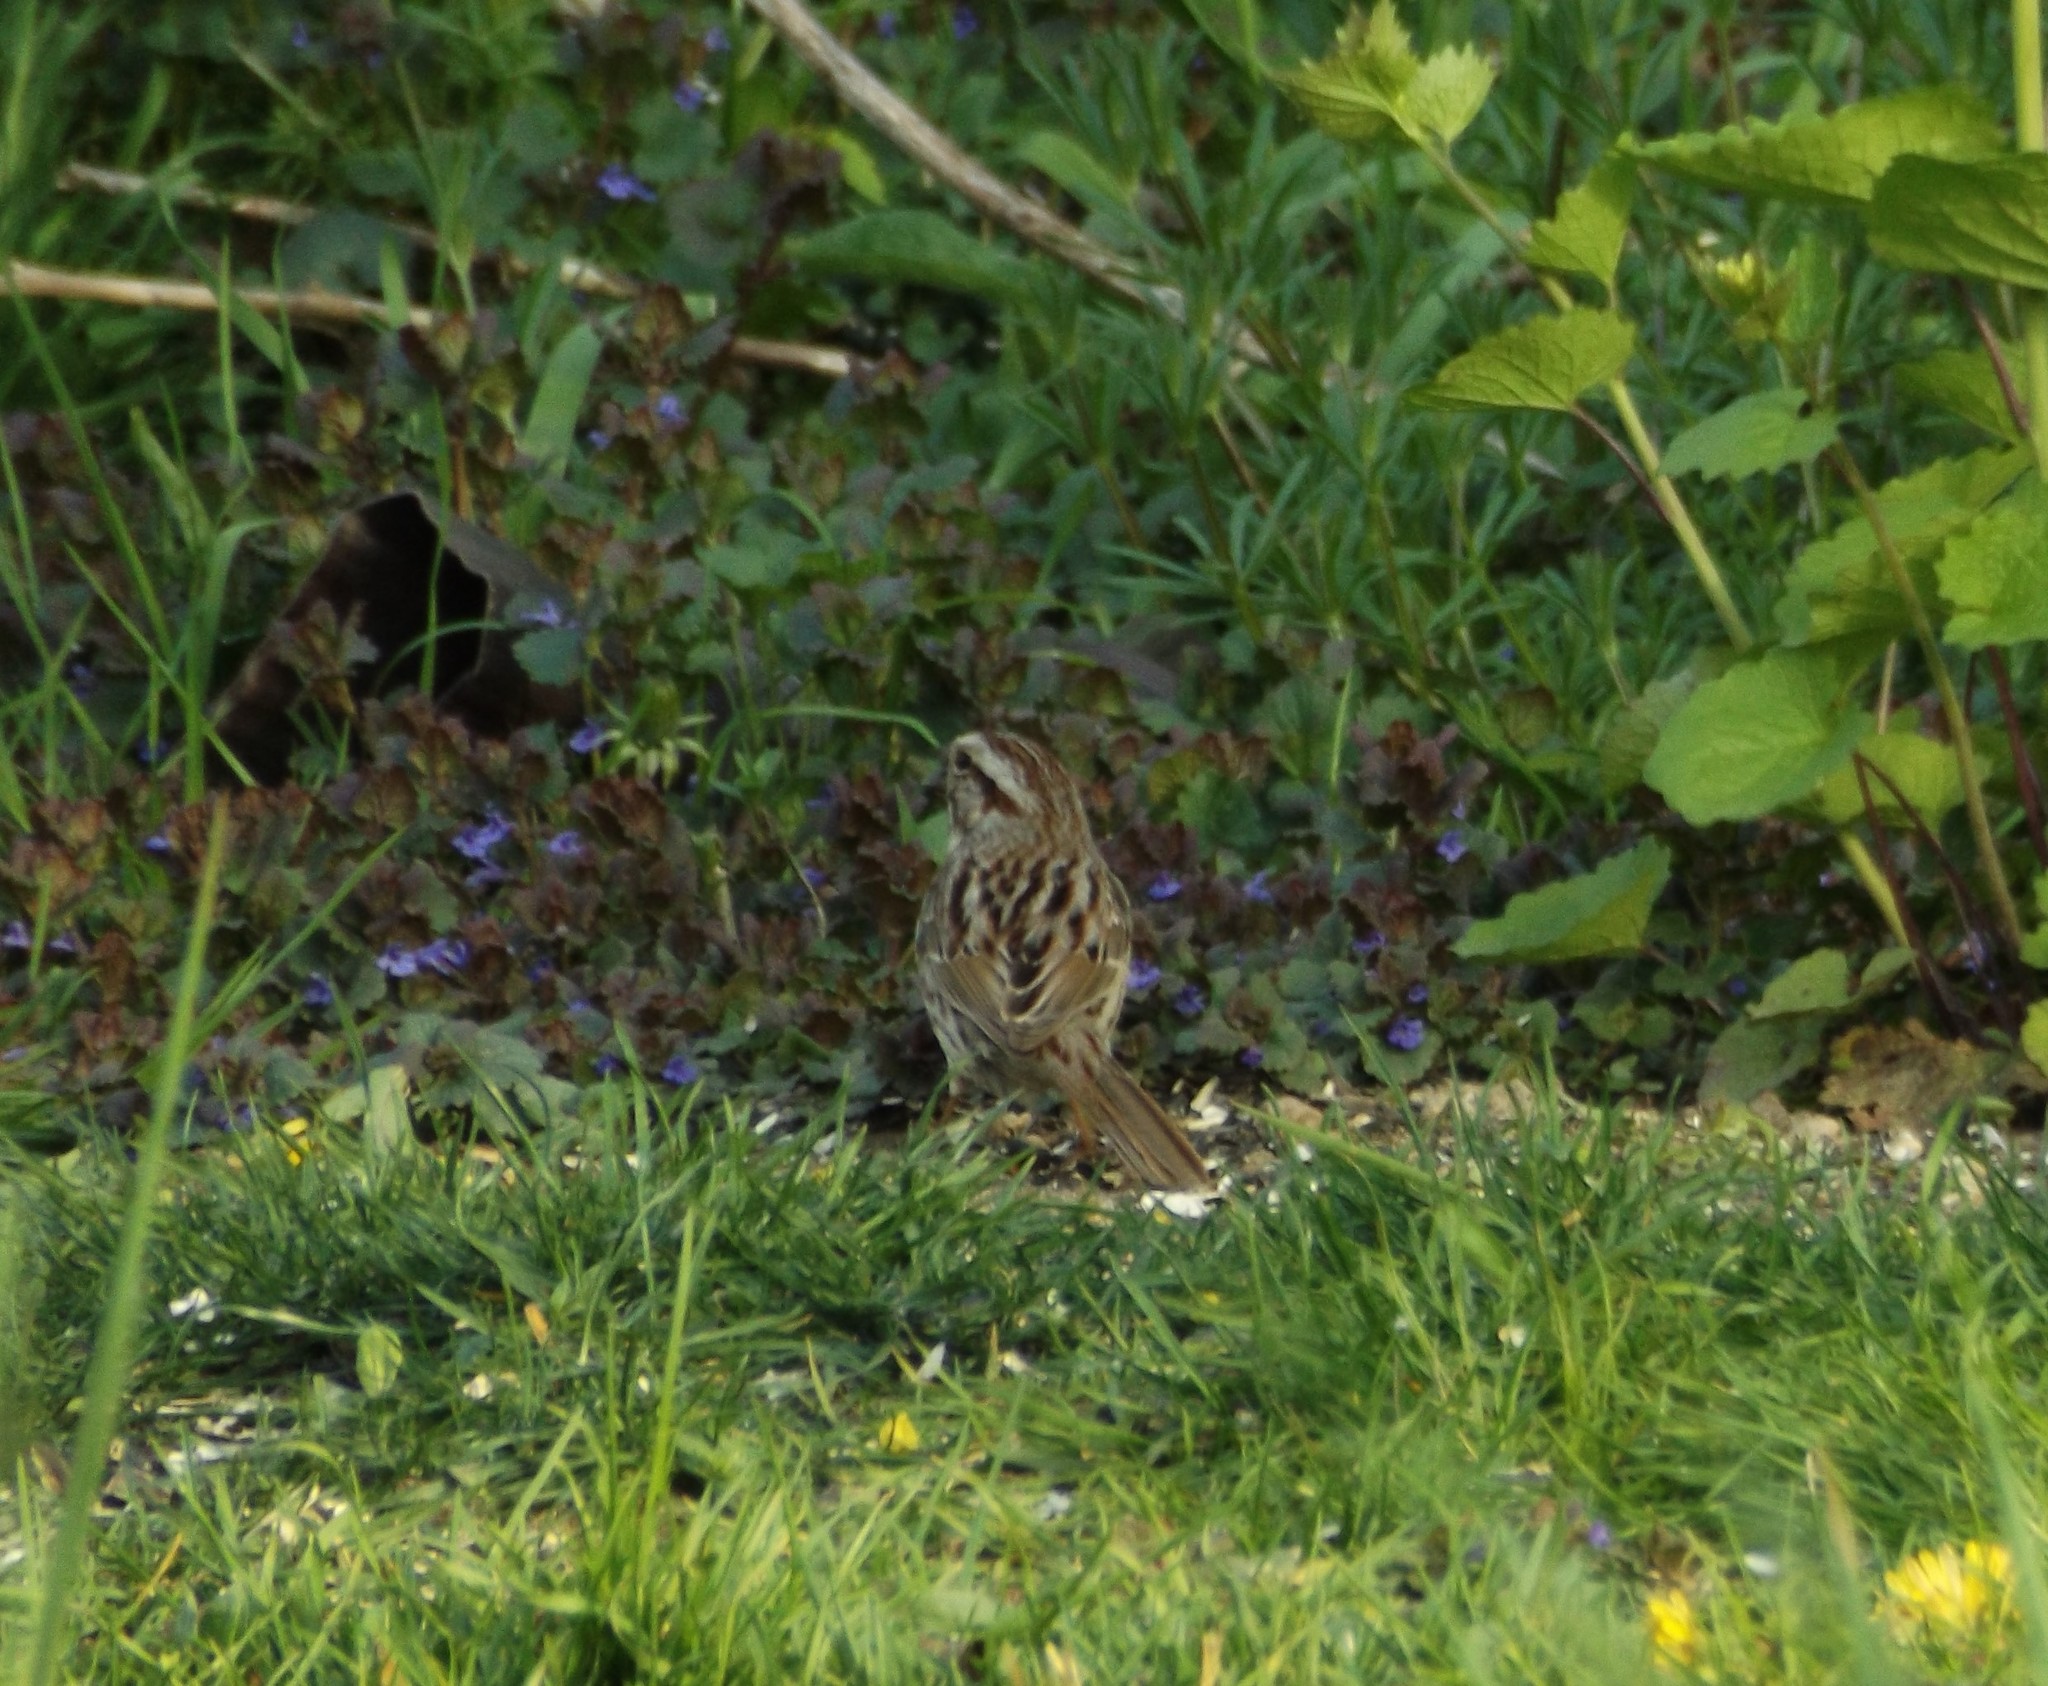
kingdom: Animalia
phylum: Chordata
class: Aves
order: Passeriformes
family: Passerellidae
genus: Melospiza
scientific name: Melospiza melodia
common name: Song sparrow
